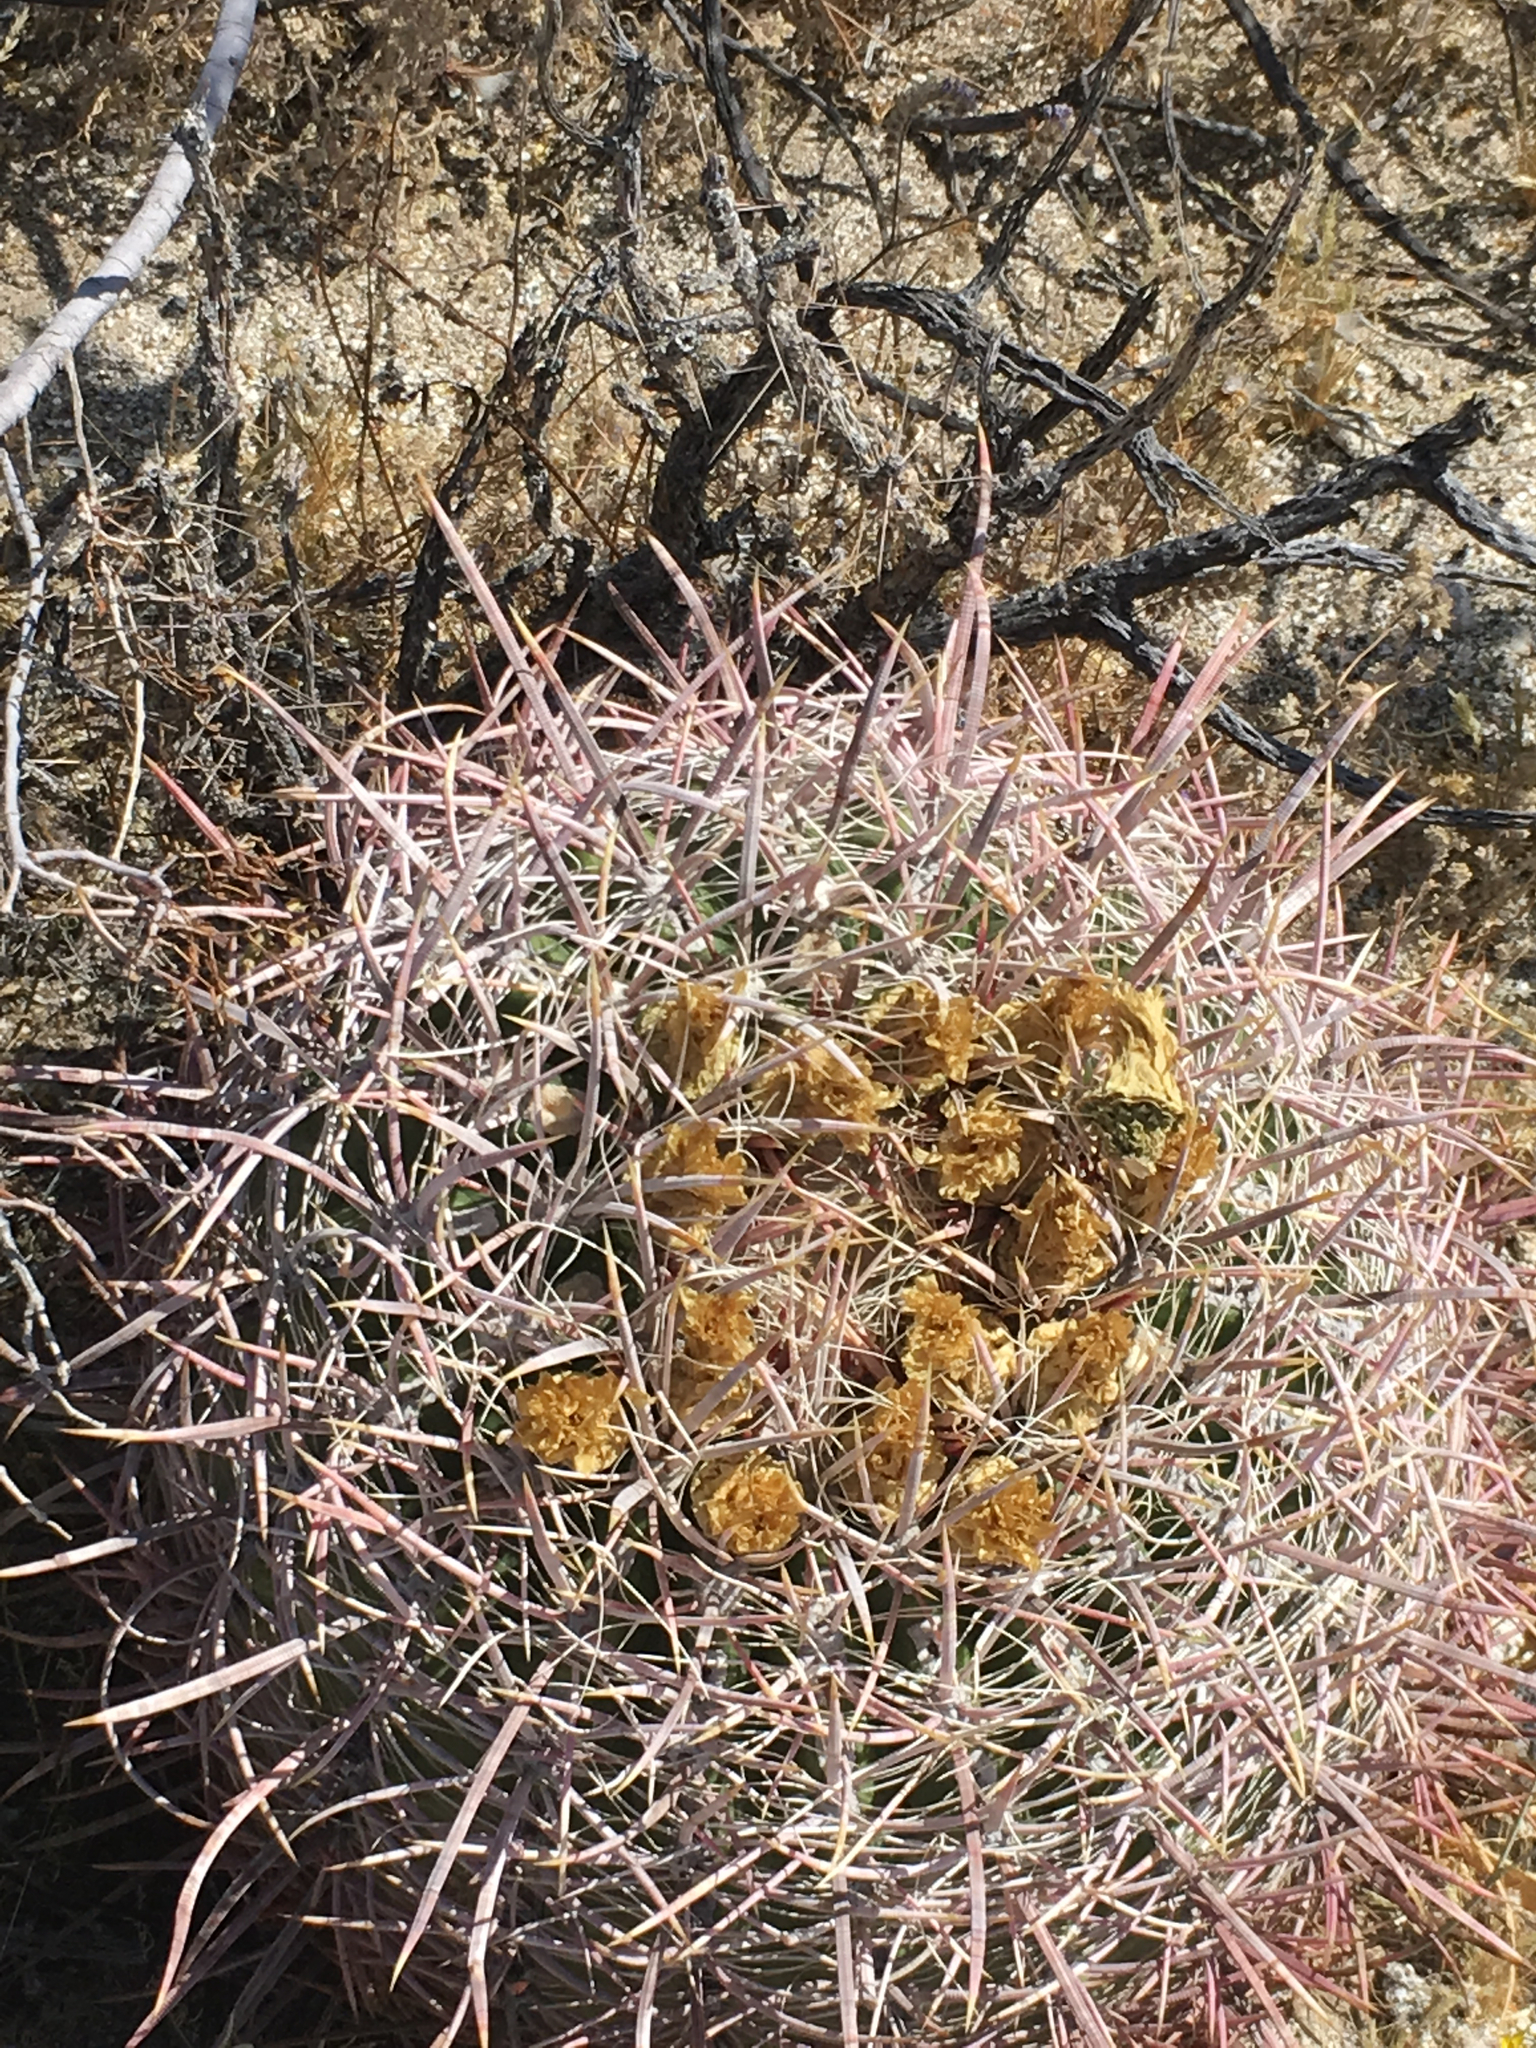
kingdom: Plantae
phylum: Tracheophyta
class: Magnoliopsida
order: Caryophyllales
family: Cactaceae
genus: Ferocactus
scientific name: Ferocactus cylindraceus
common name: California barrel cactus
